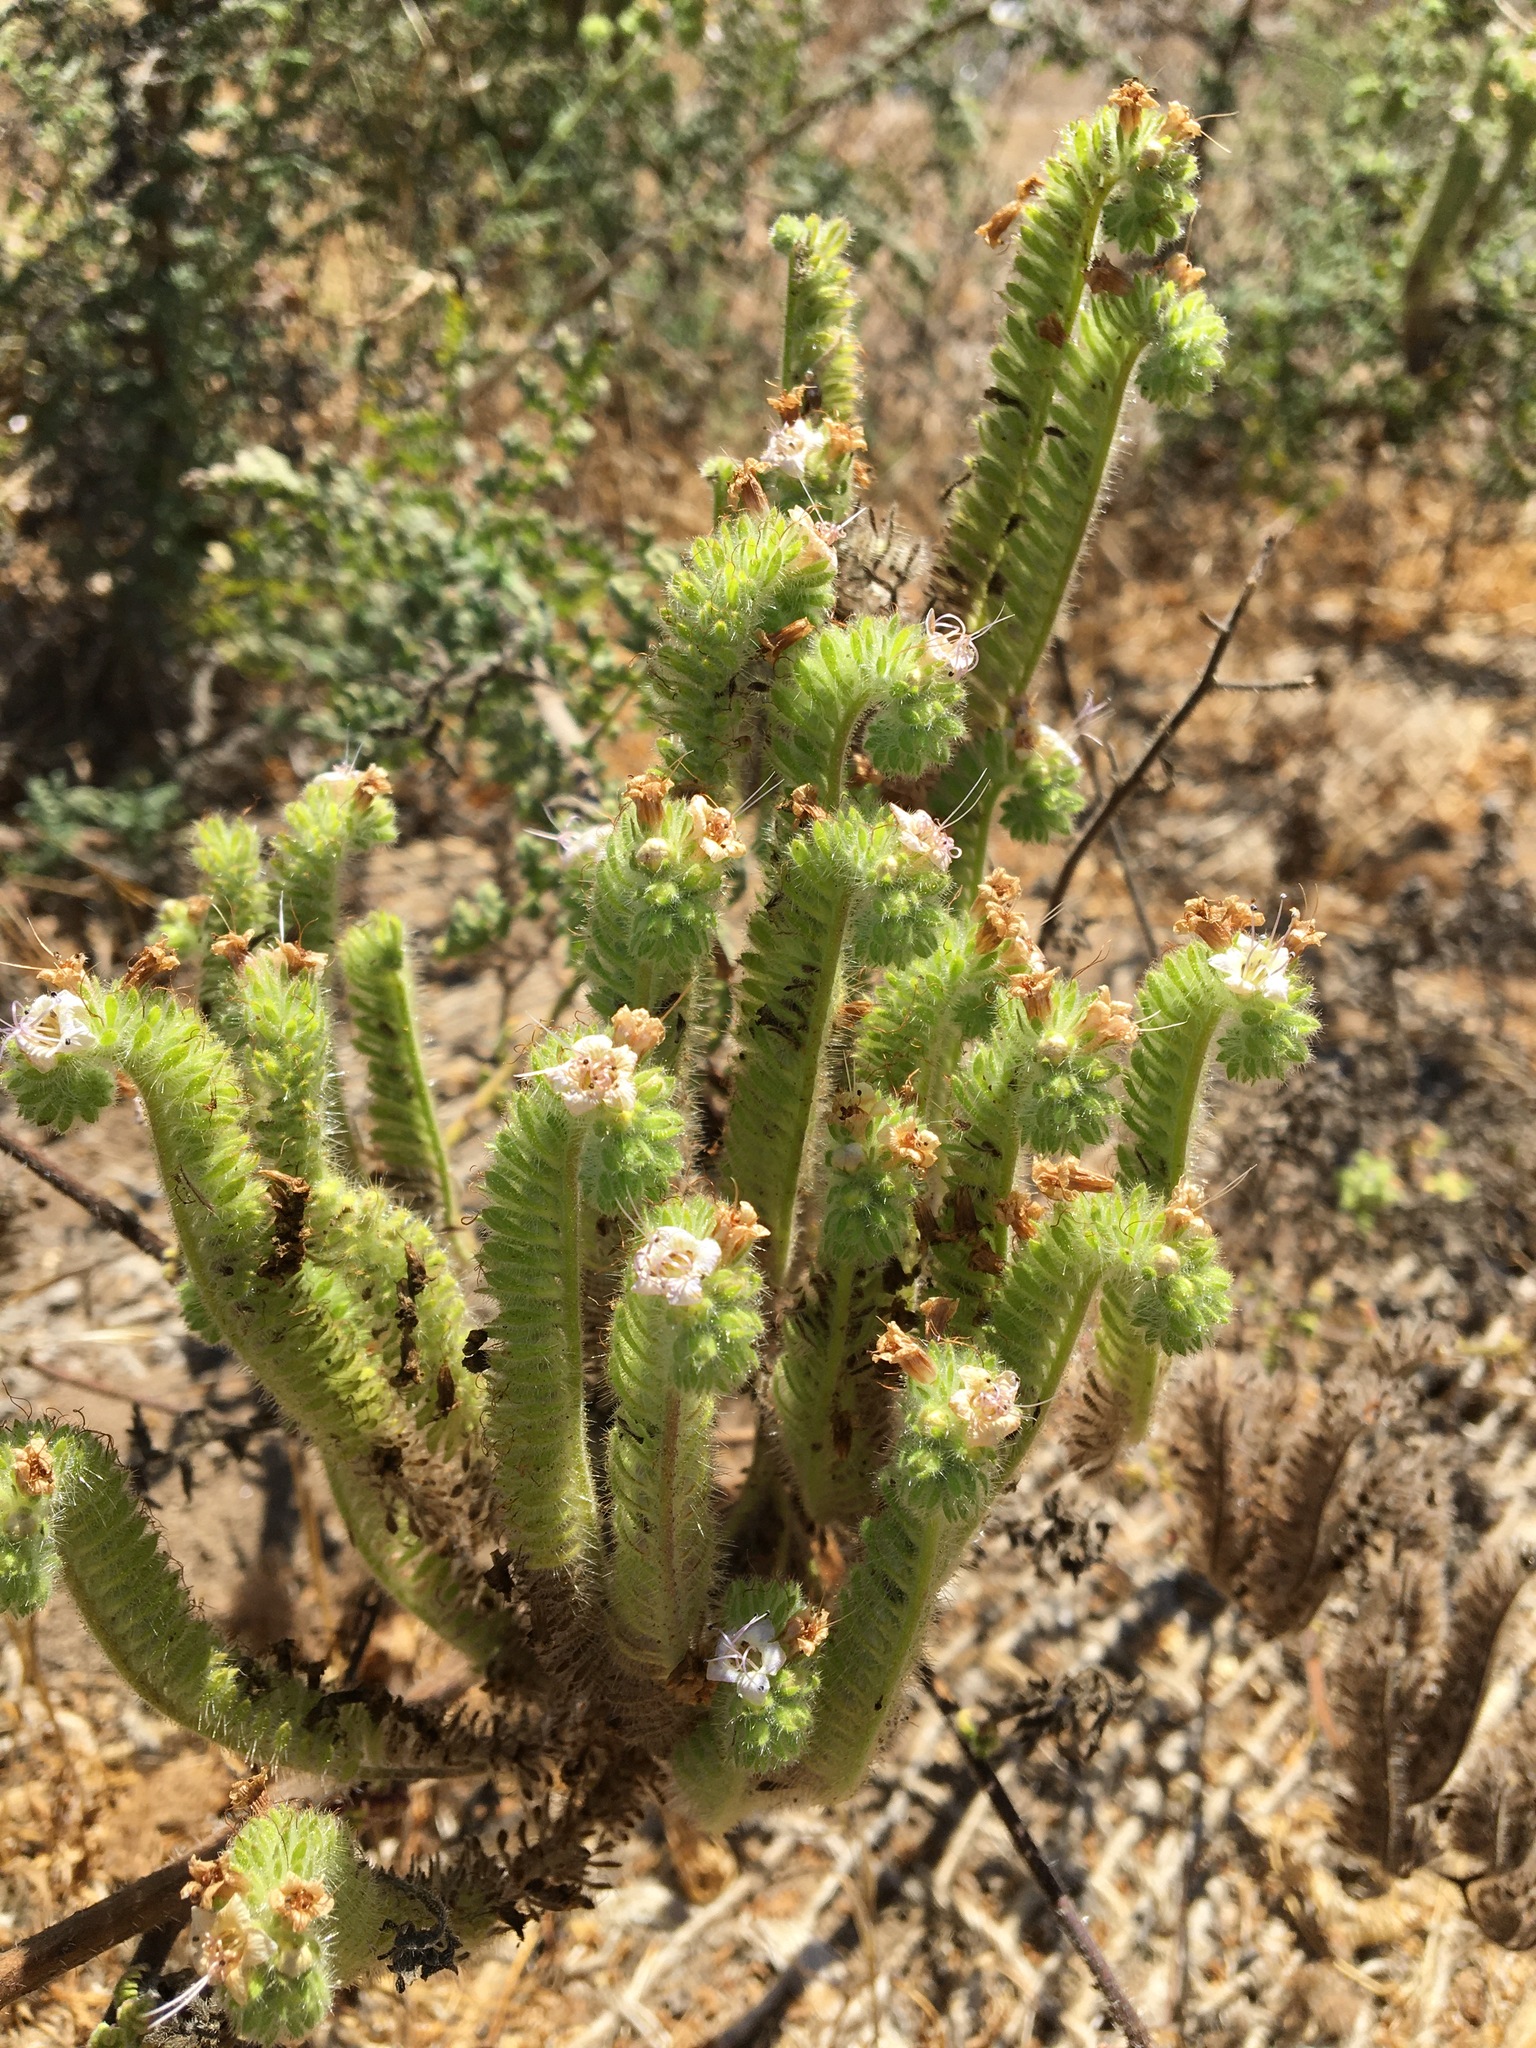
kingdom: Plantae
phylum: Tracheophyta
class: Magnoliopsida
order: Boraginales
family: Hydrophyllaceae
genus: Phacelia
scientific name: Phacelia ramosissima
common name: Branching phacelia
